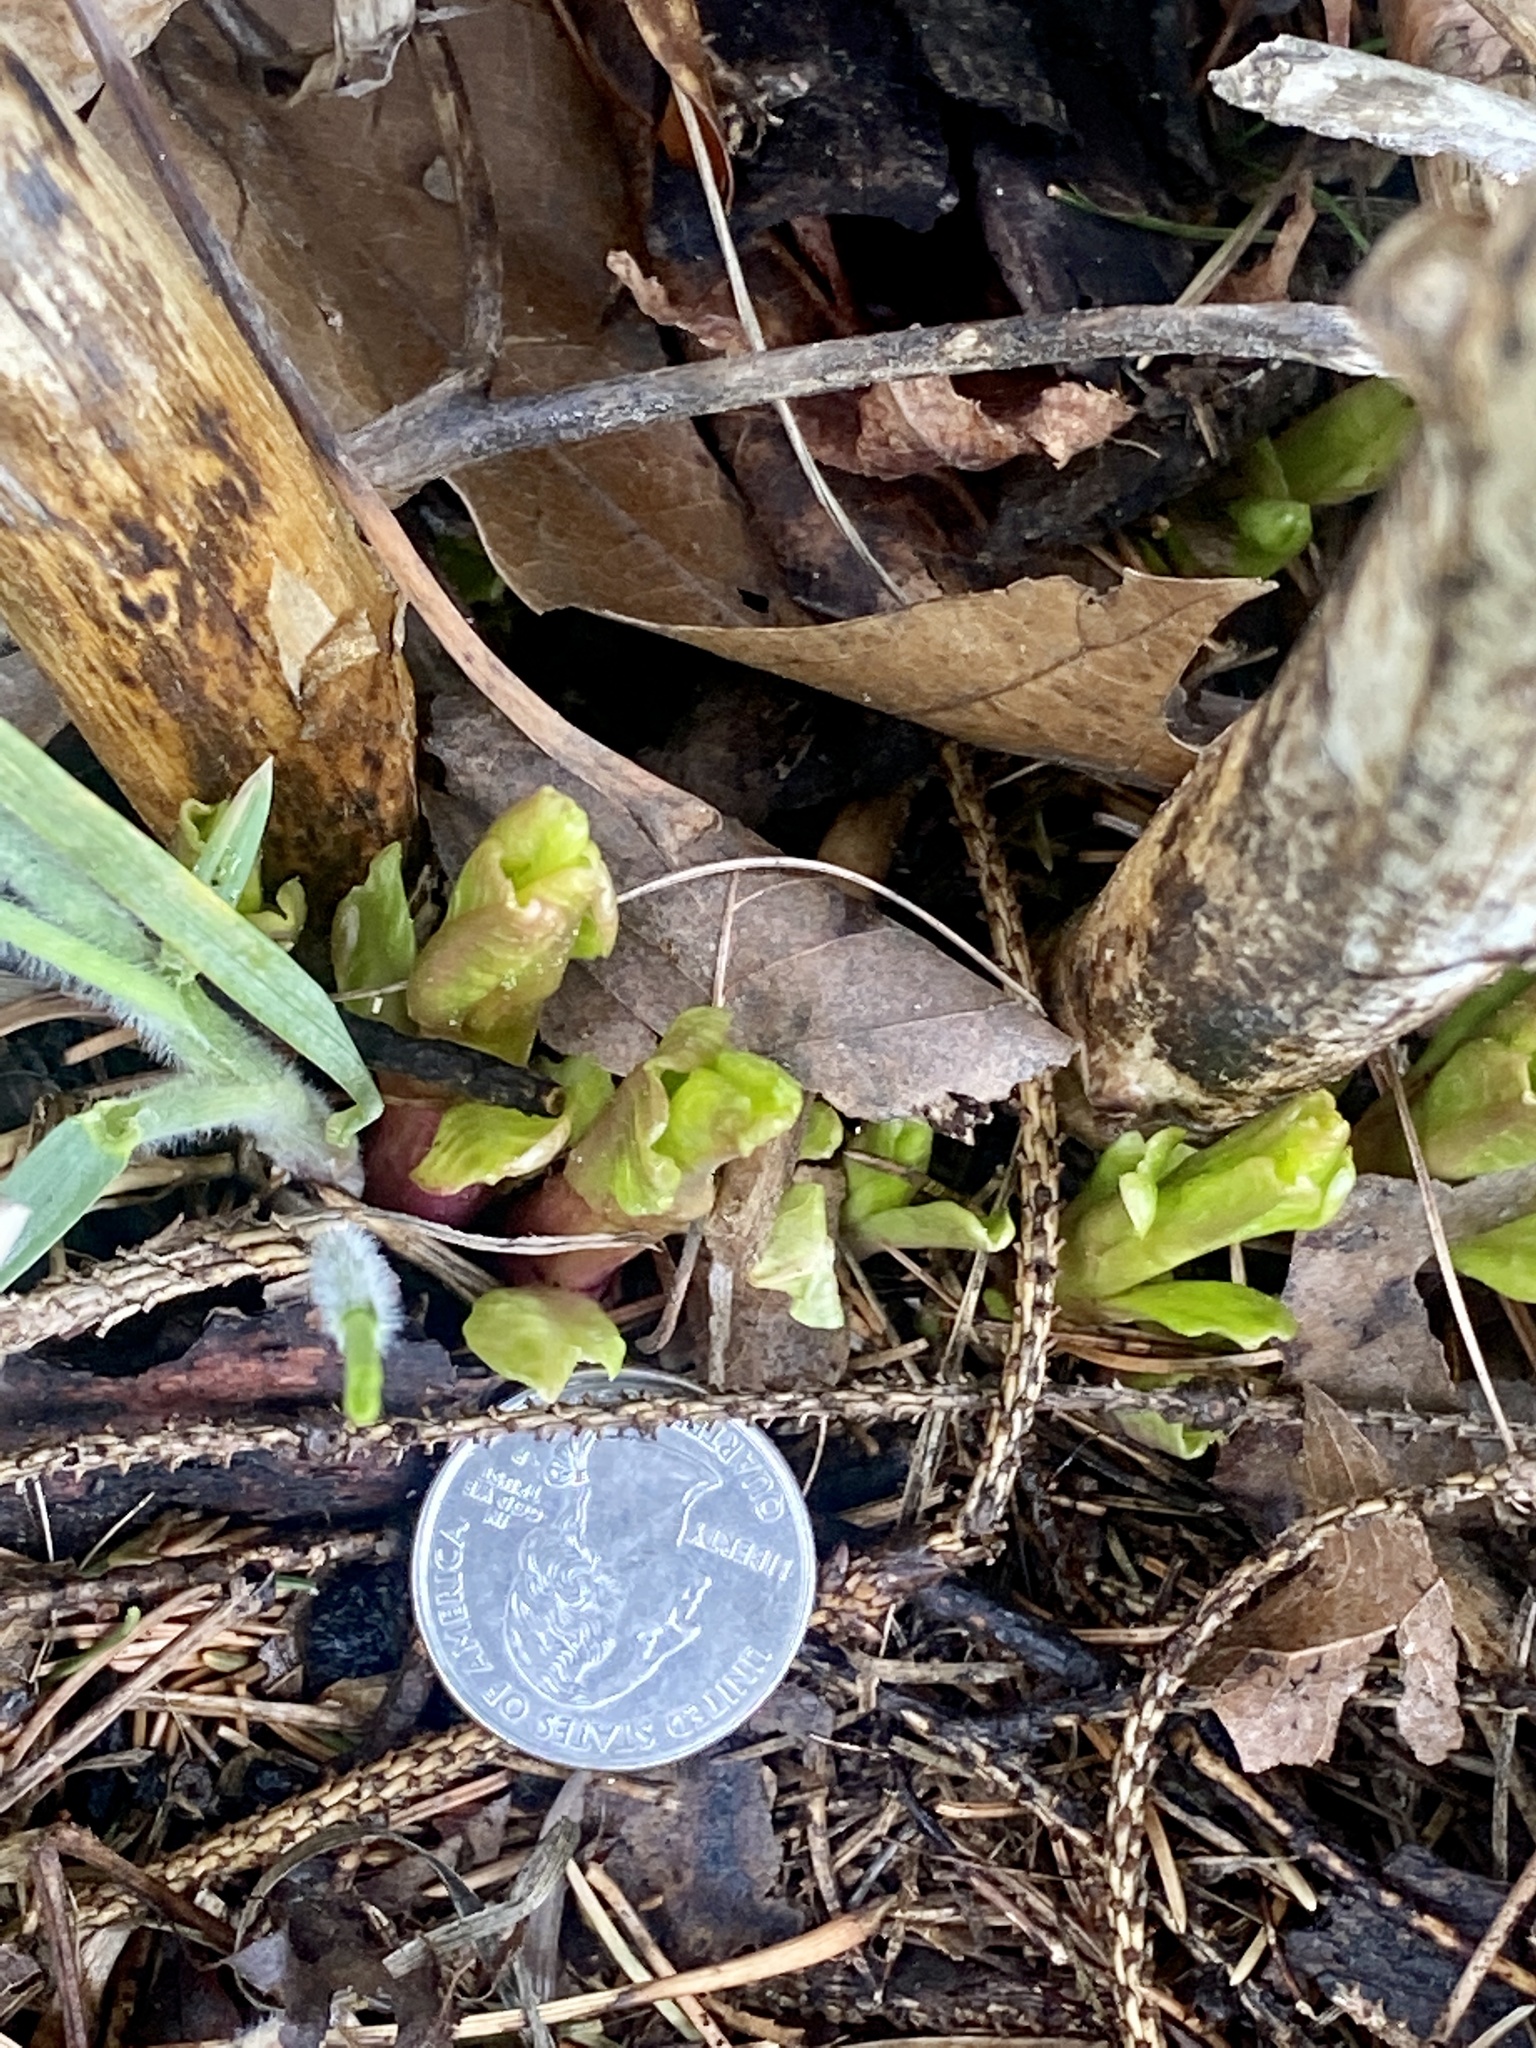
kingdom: Plantae
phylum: Tracheophyta
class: Magnoliopsida
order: Caryophyllales
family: Phytolaccaceae
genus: Phytolacca
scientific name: Phytolacca americana
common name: American pokeweed
